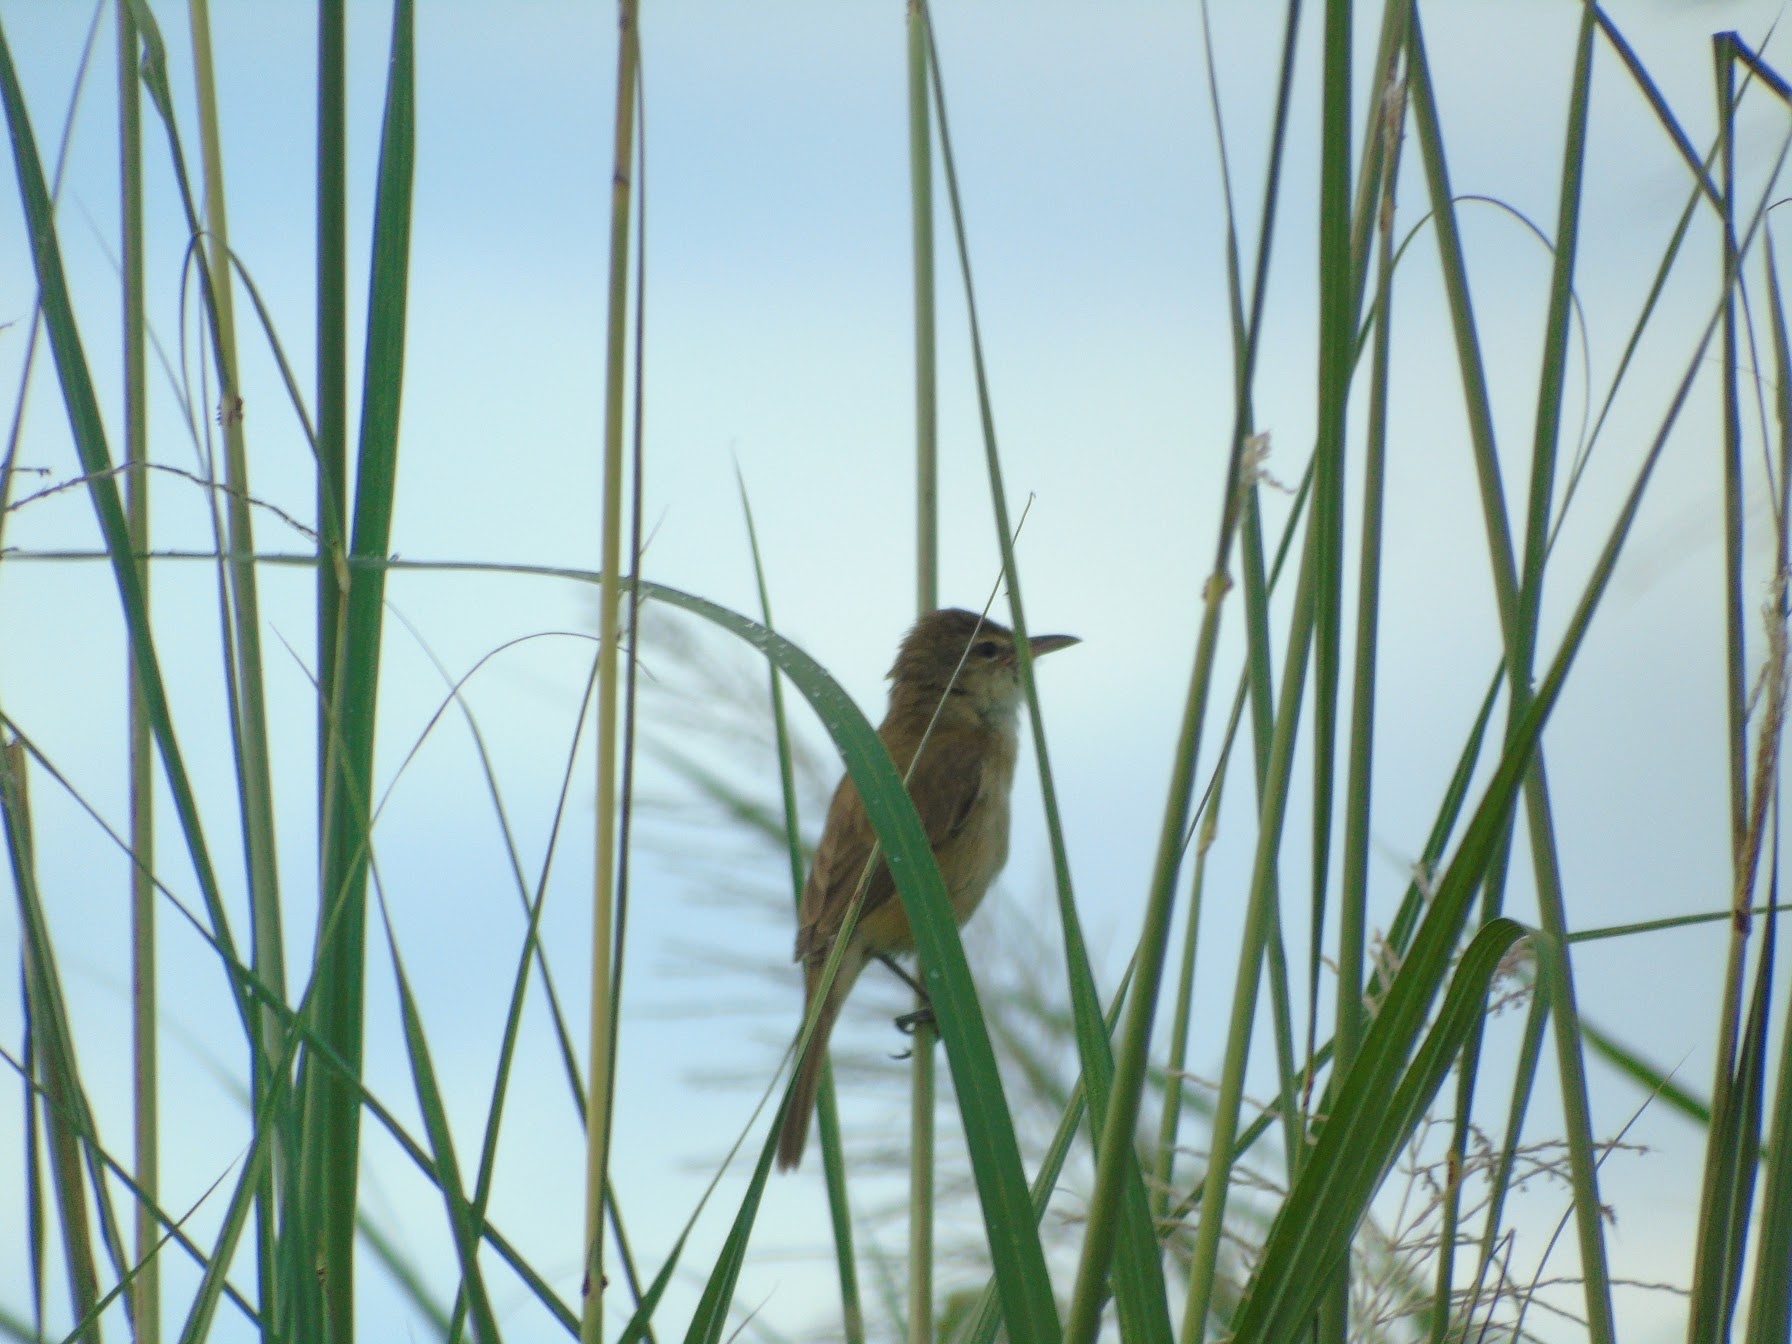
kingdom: Animalia
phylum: Chordata
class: Aves
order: Passeriformes
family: Acrocephalidae
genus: Acrocephalus
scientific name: Acrocephalus stentoreus
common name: Clamorous reed warbler
